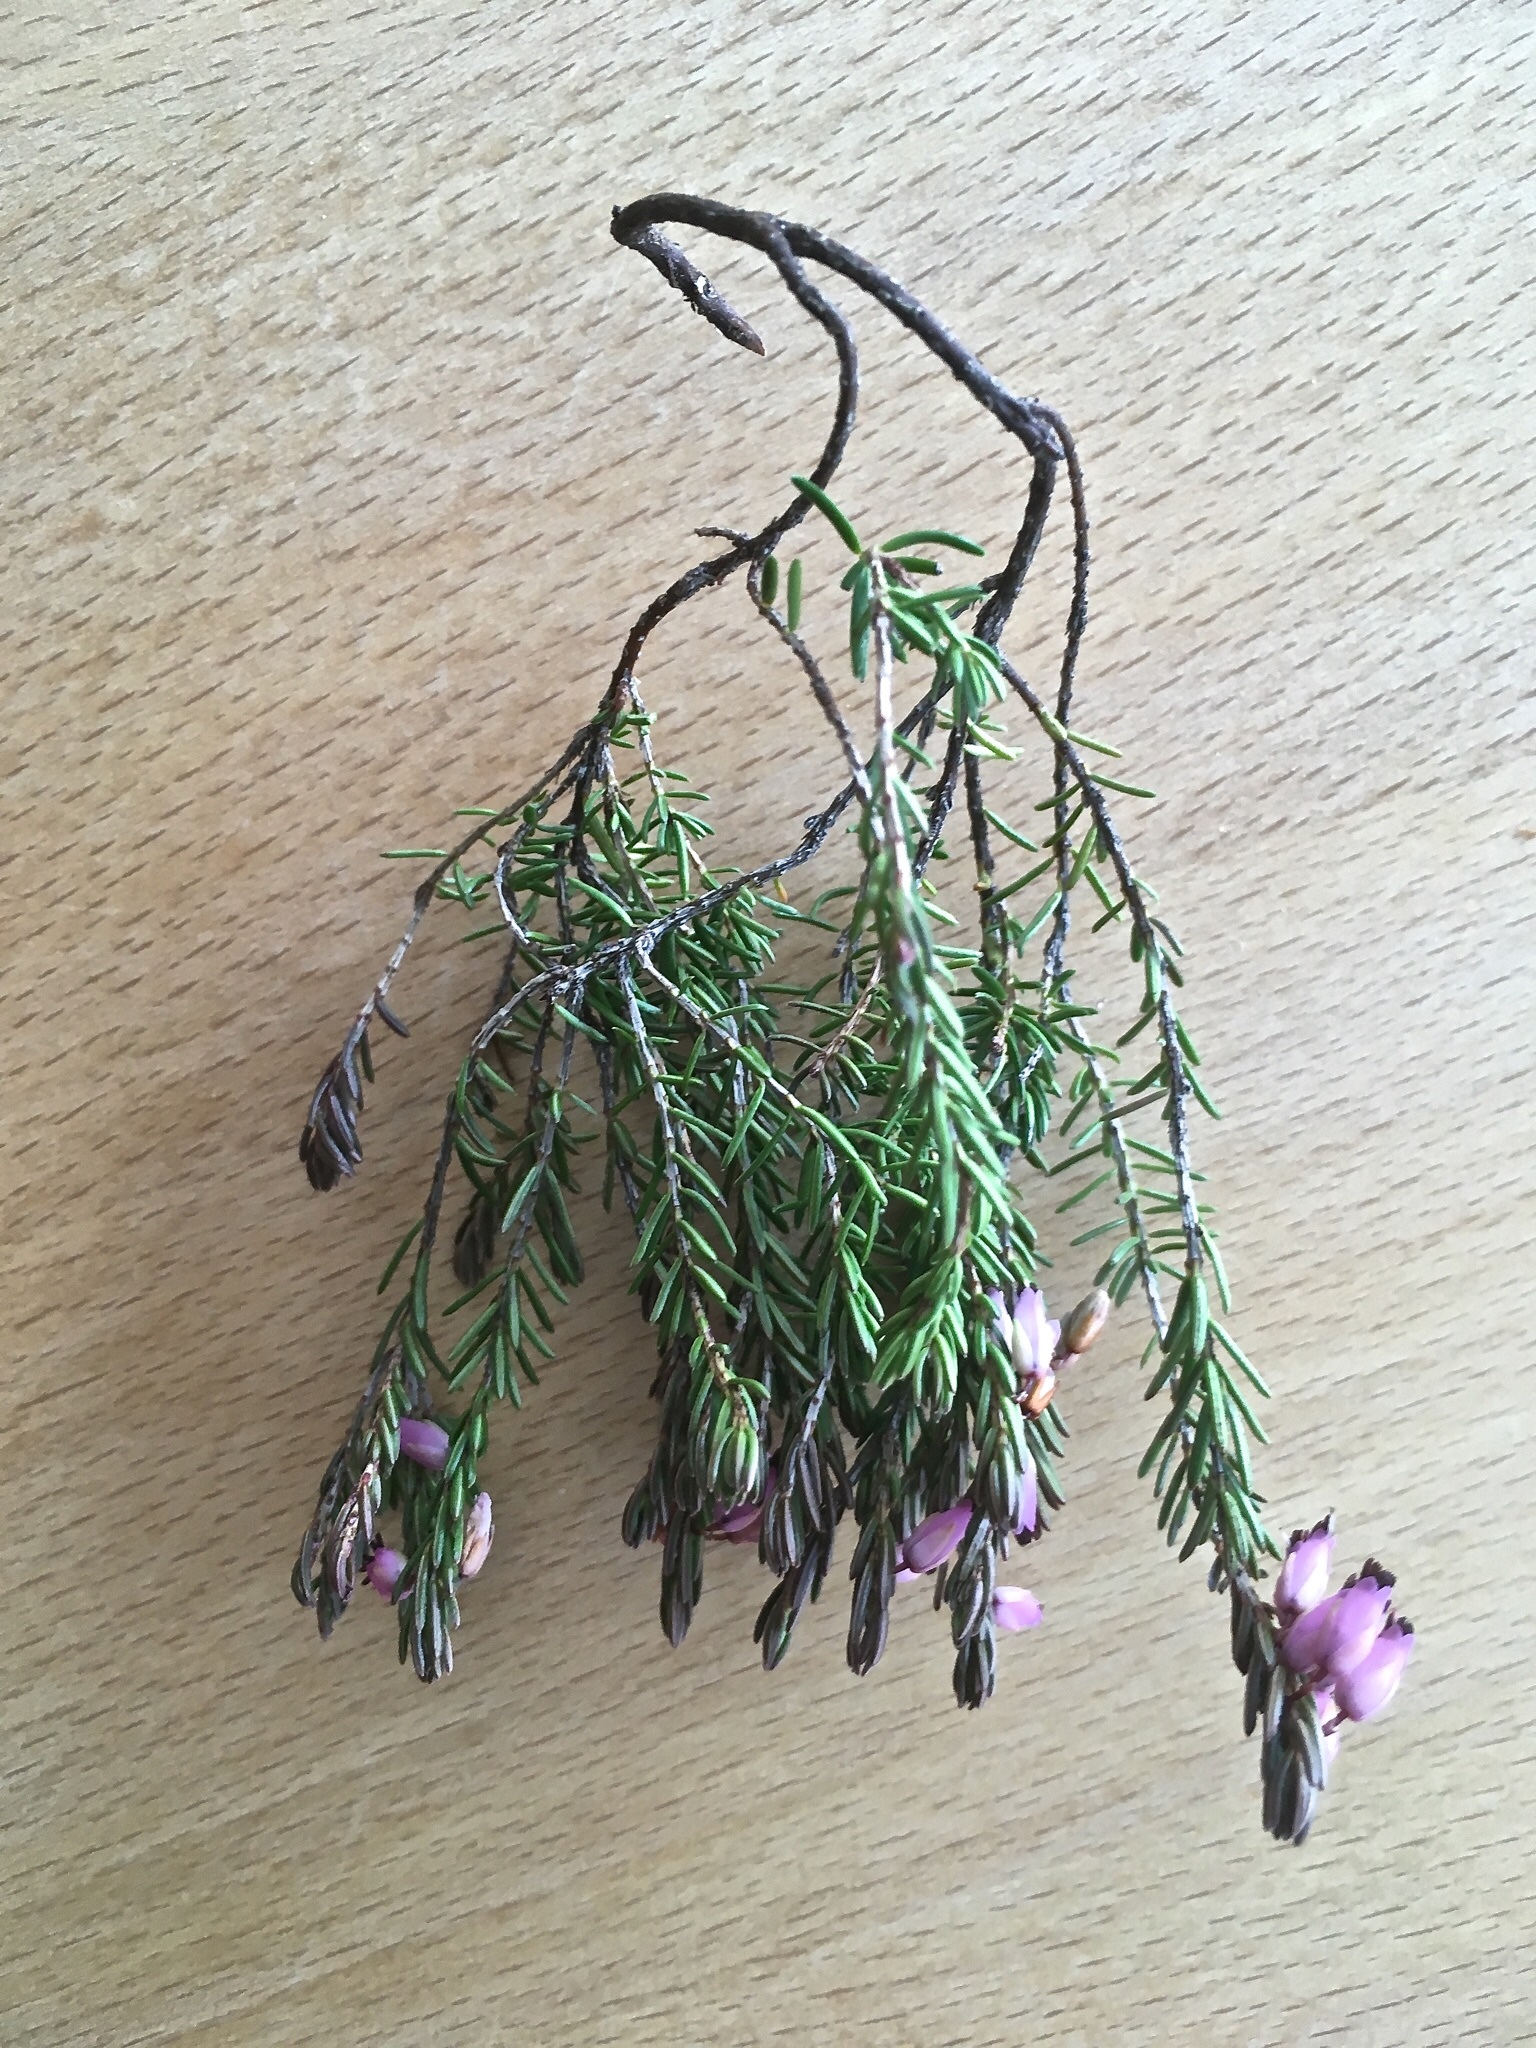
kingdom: Plantae
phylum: Tracheophyta
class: Magnoliopsida
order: Ericales
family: Ericaceae
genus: Erica
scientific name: Erica carnea
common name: Winter heath
